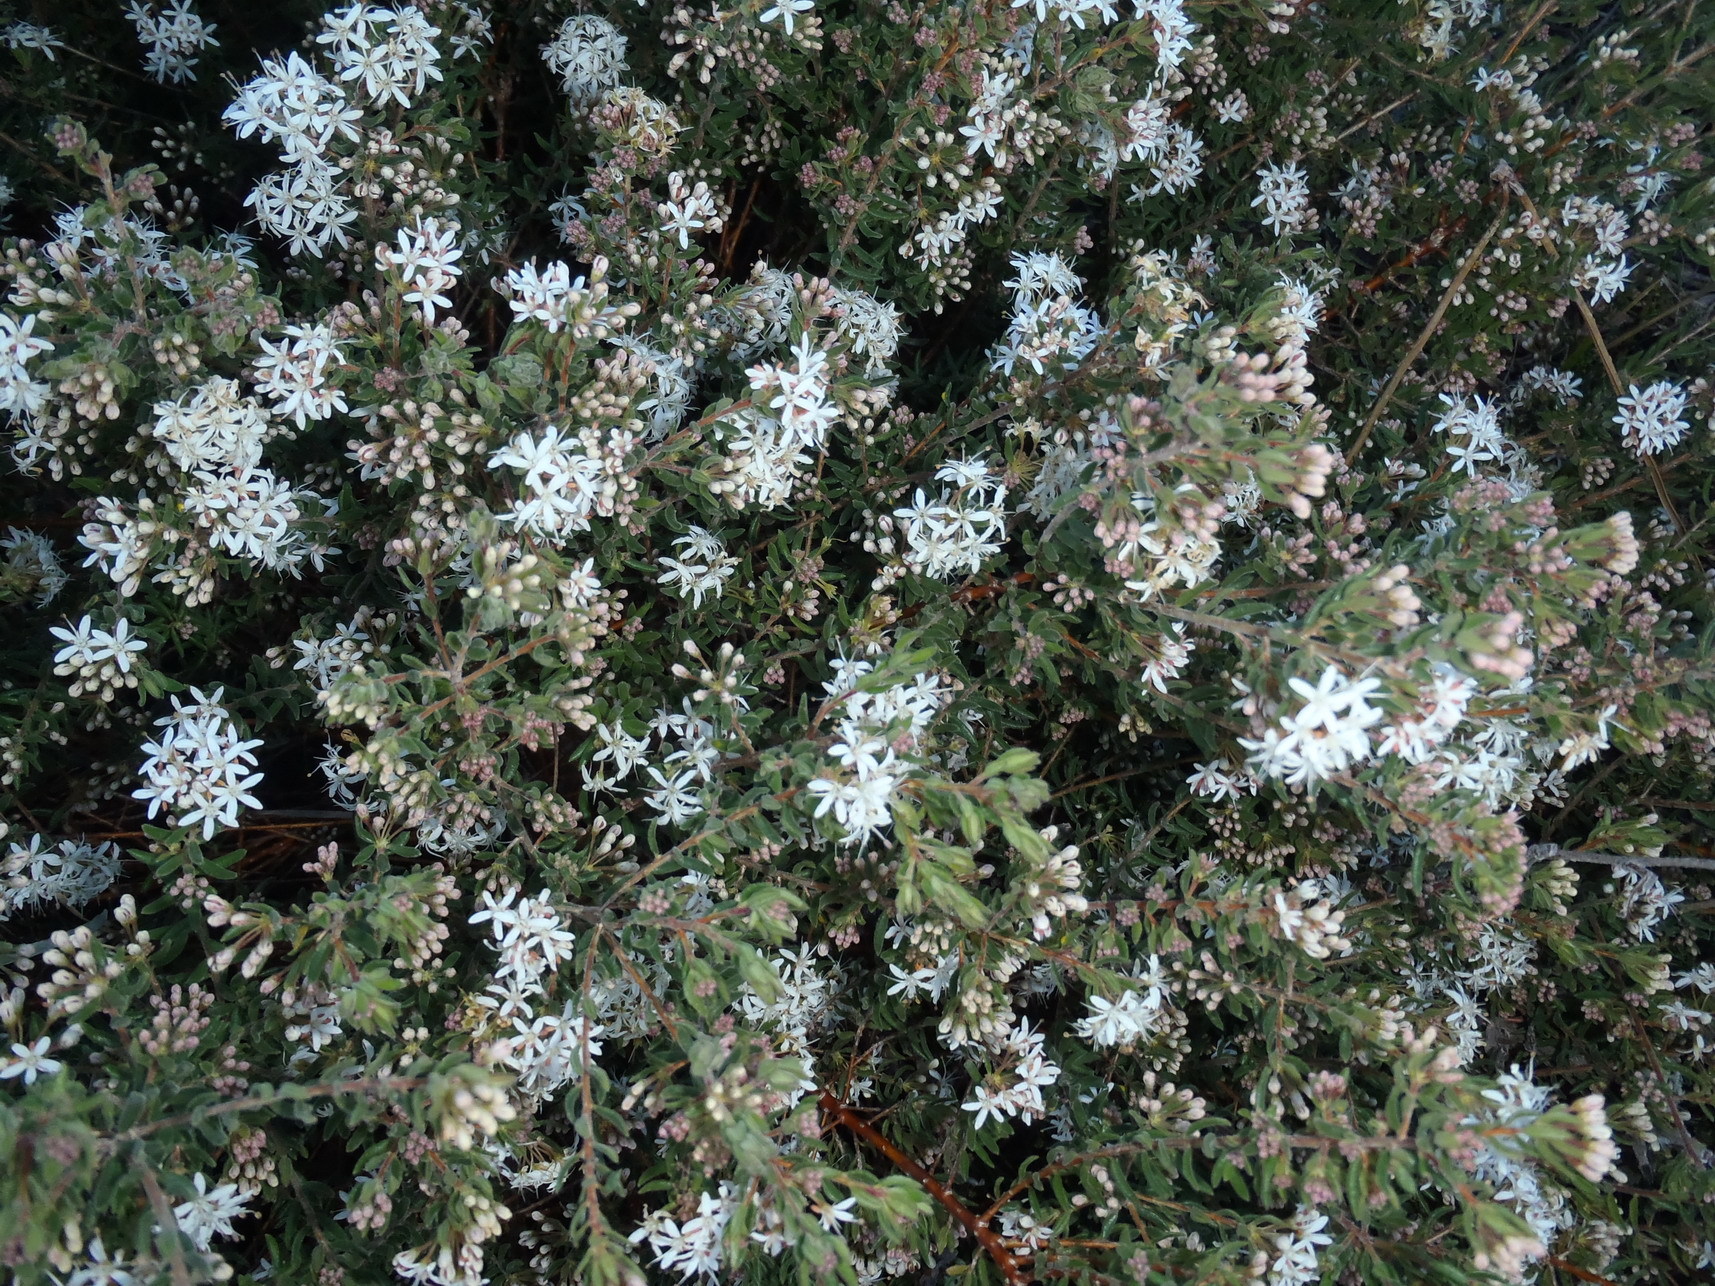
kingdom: Plantae
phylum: Tracheophyta
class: Magnoliopsida
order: Sapindales
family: Rutaceae
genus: Agathosma
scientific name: Agathosma mundtii
